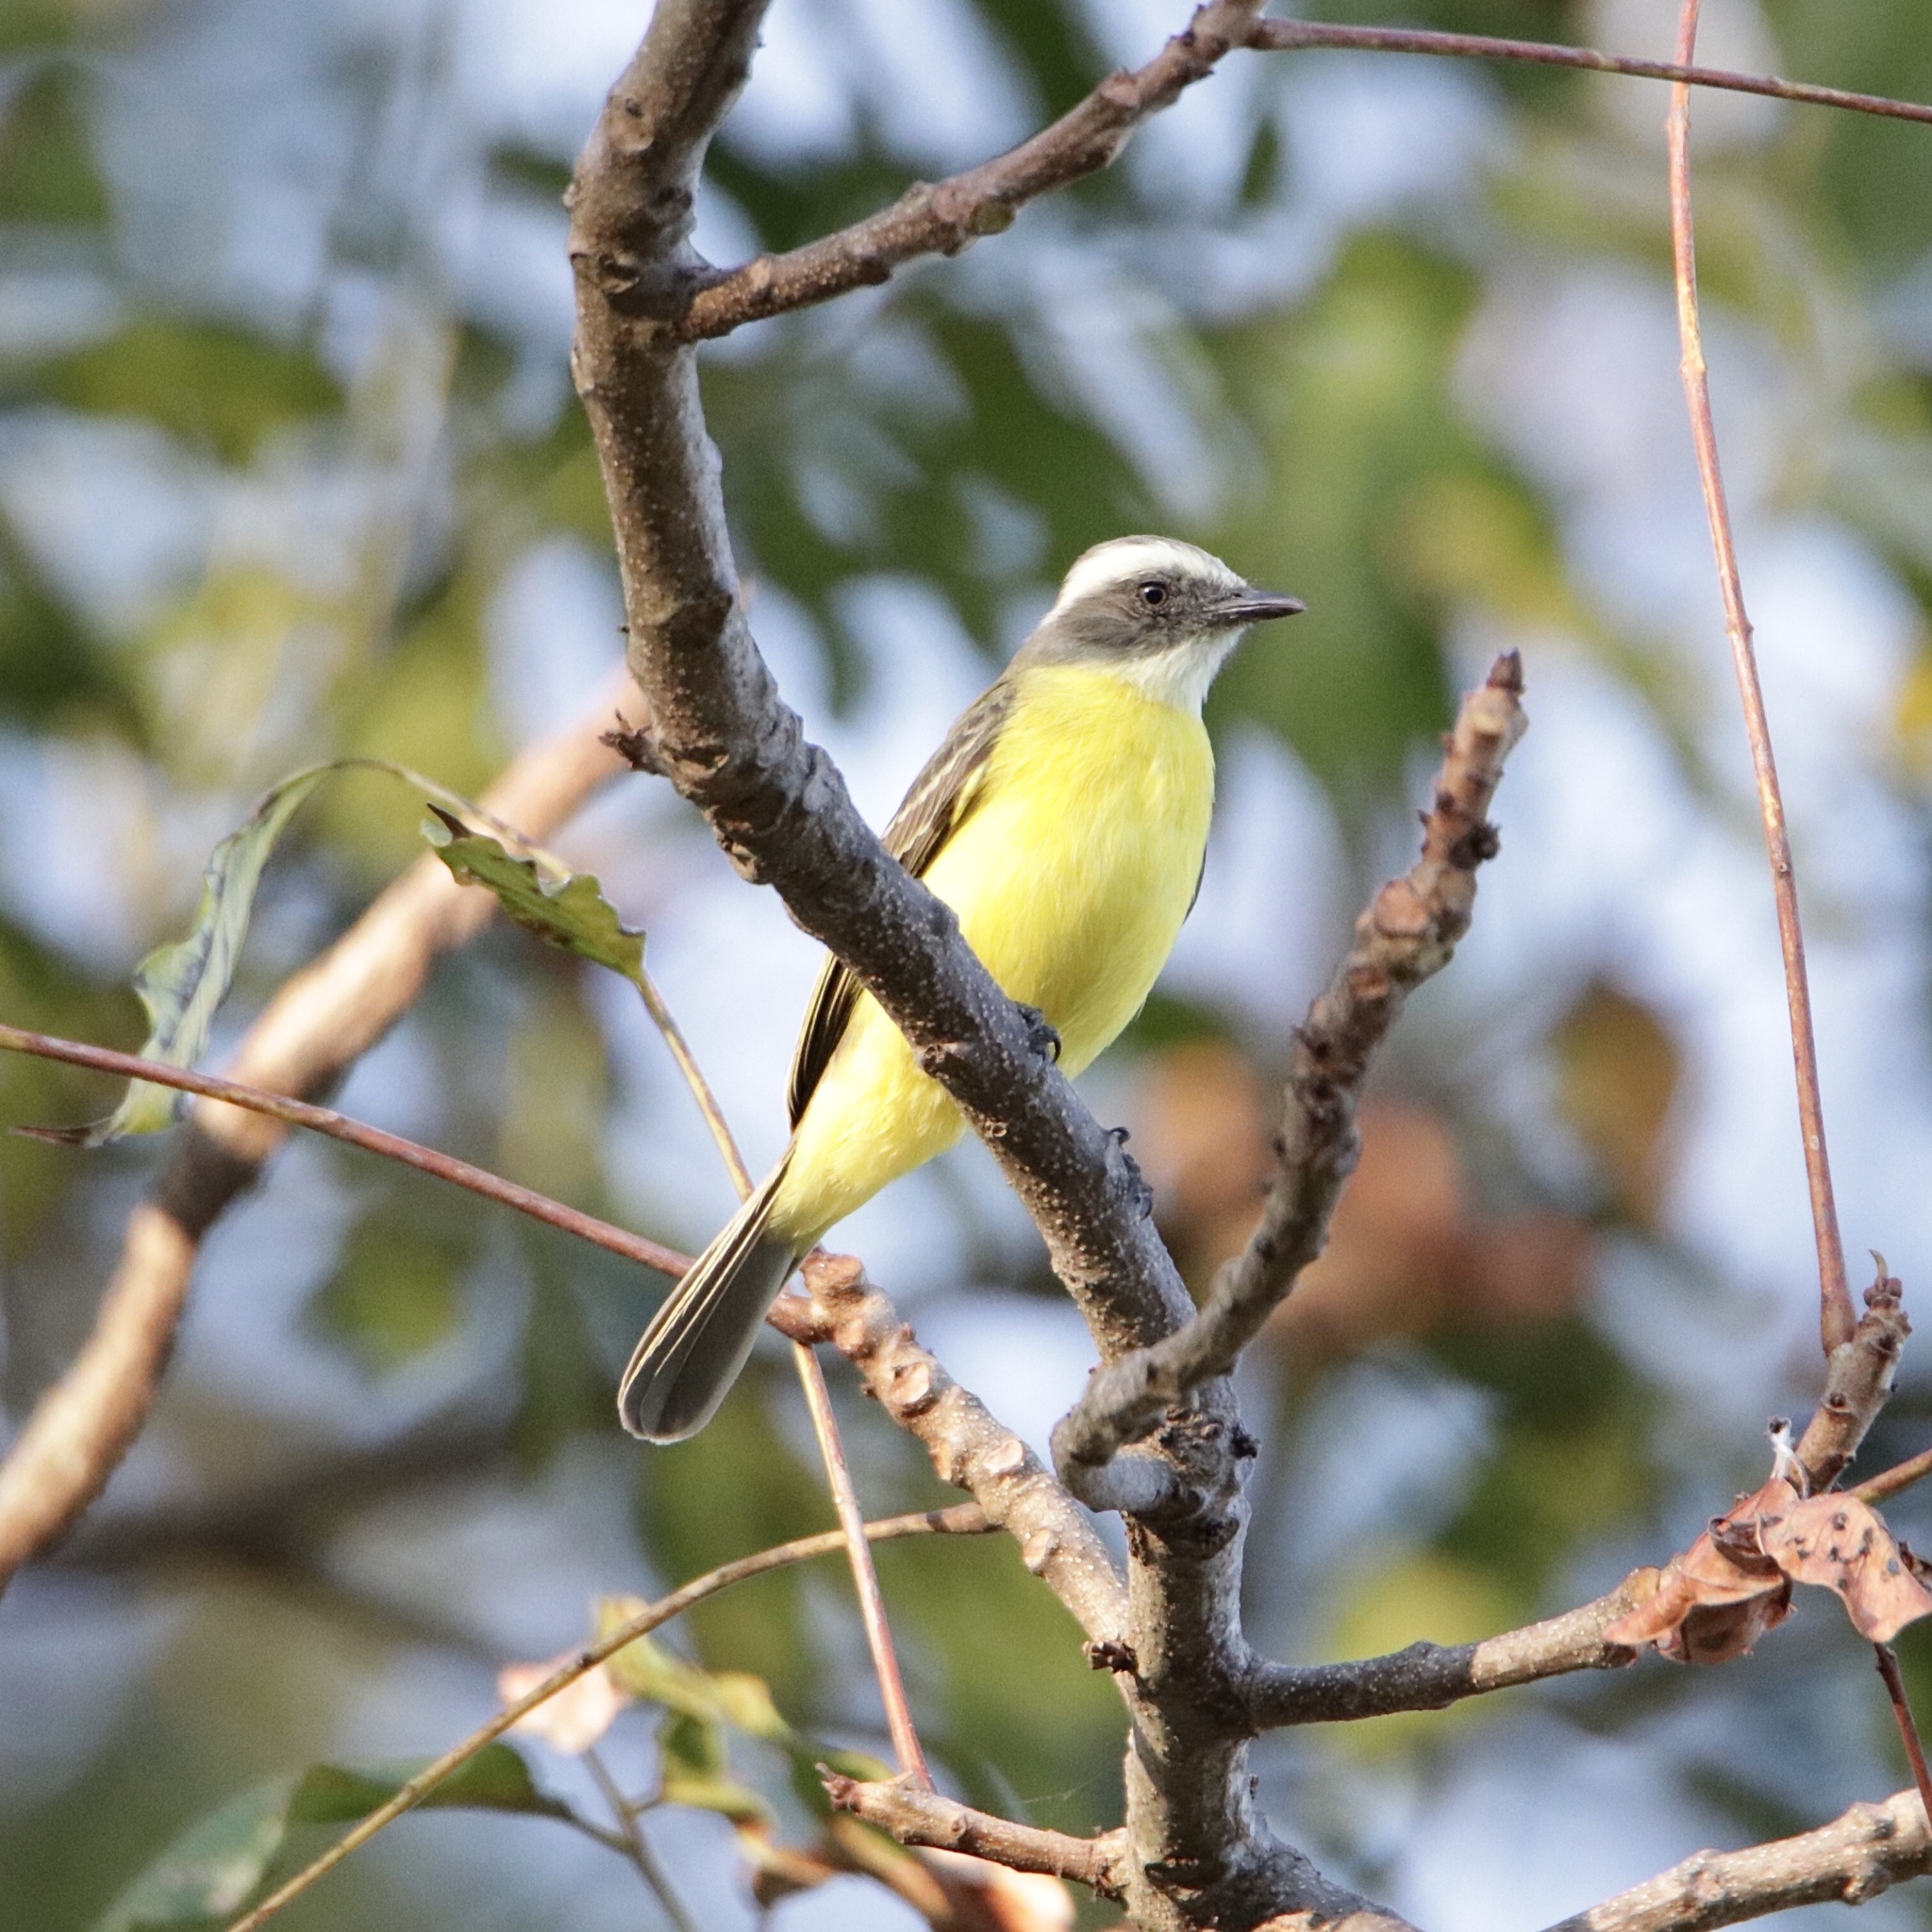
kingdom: Animalia
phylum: Chordata
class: Aves
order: Passeriformes
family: Tyrannidae
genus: Myiozetetes
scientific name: Myiozetetes similis
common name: Social flycatcher
